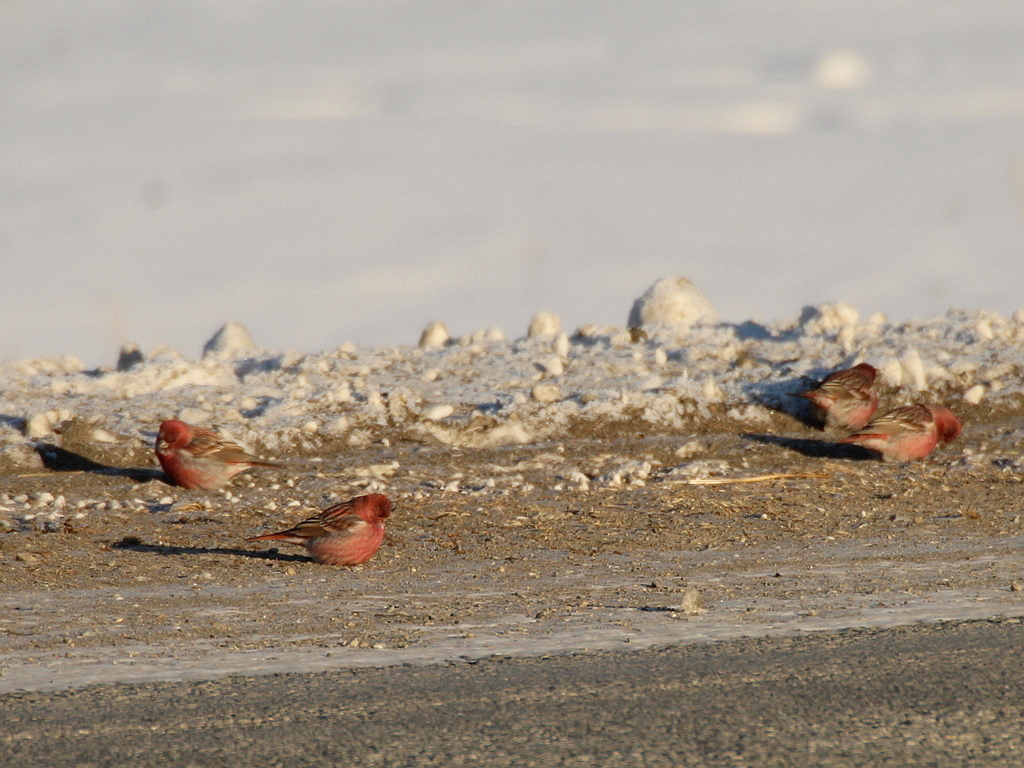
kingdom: Animalia
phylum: Chordata
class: Aves
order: Passeriformes
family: Fringillidae
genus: Carpodacus
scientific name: Carpodacus roseus
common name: Pallas's rosefinch
